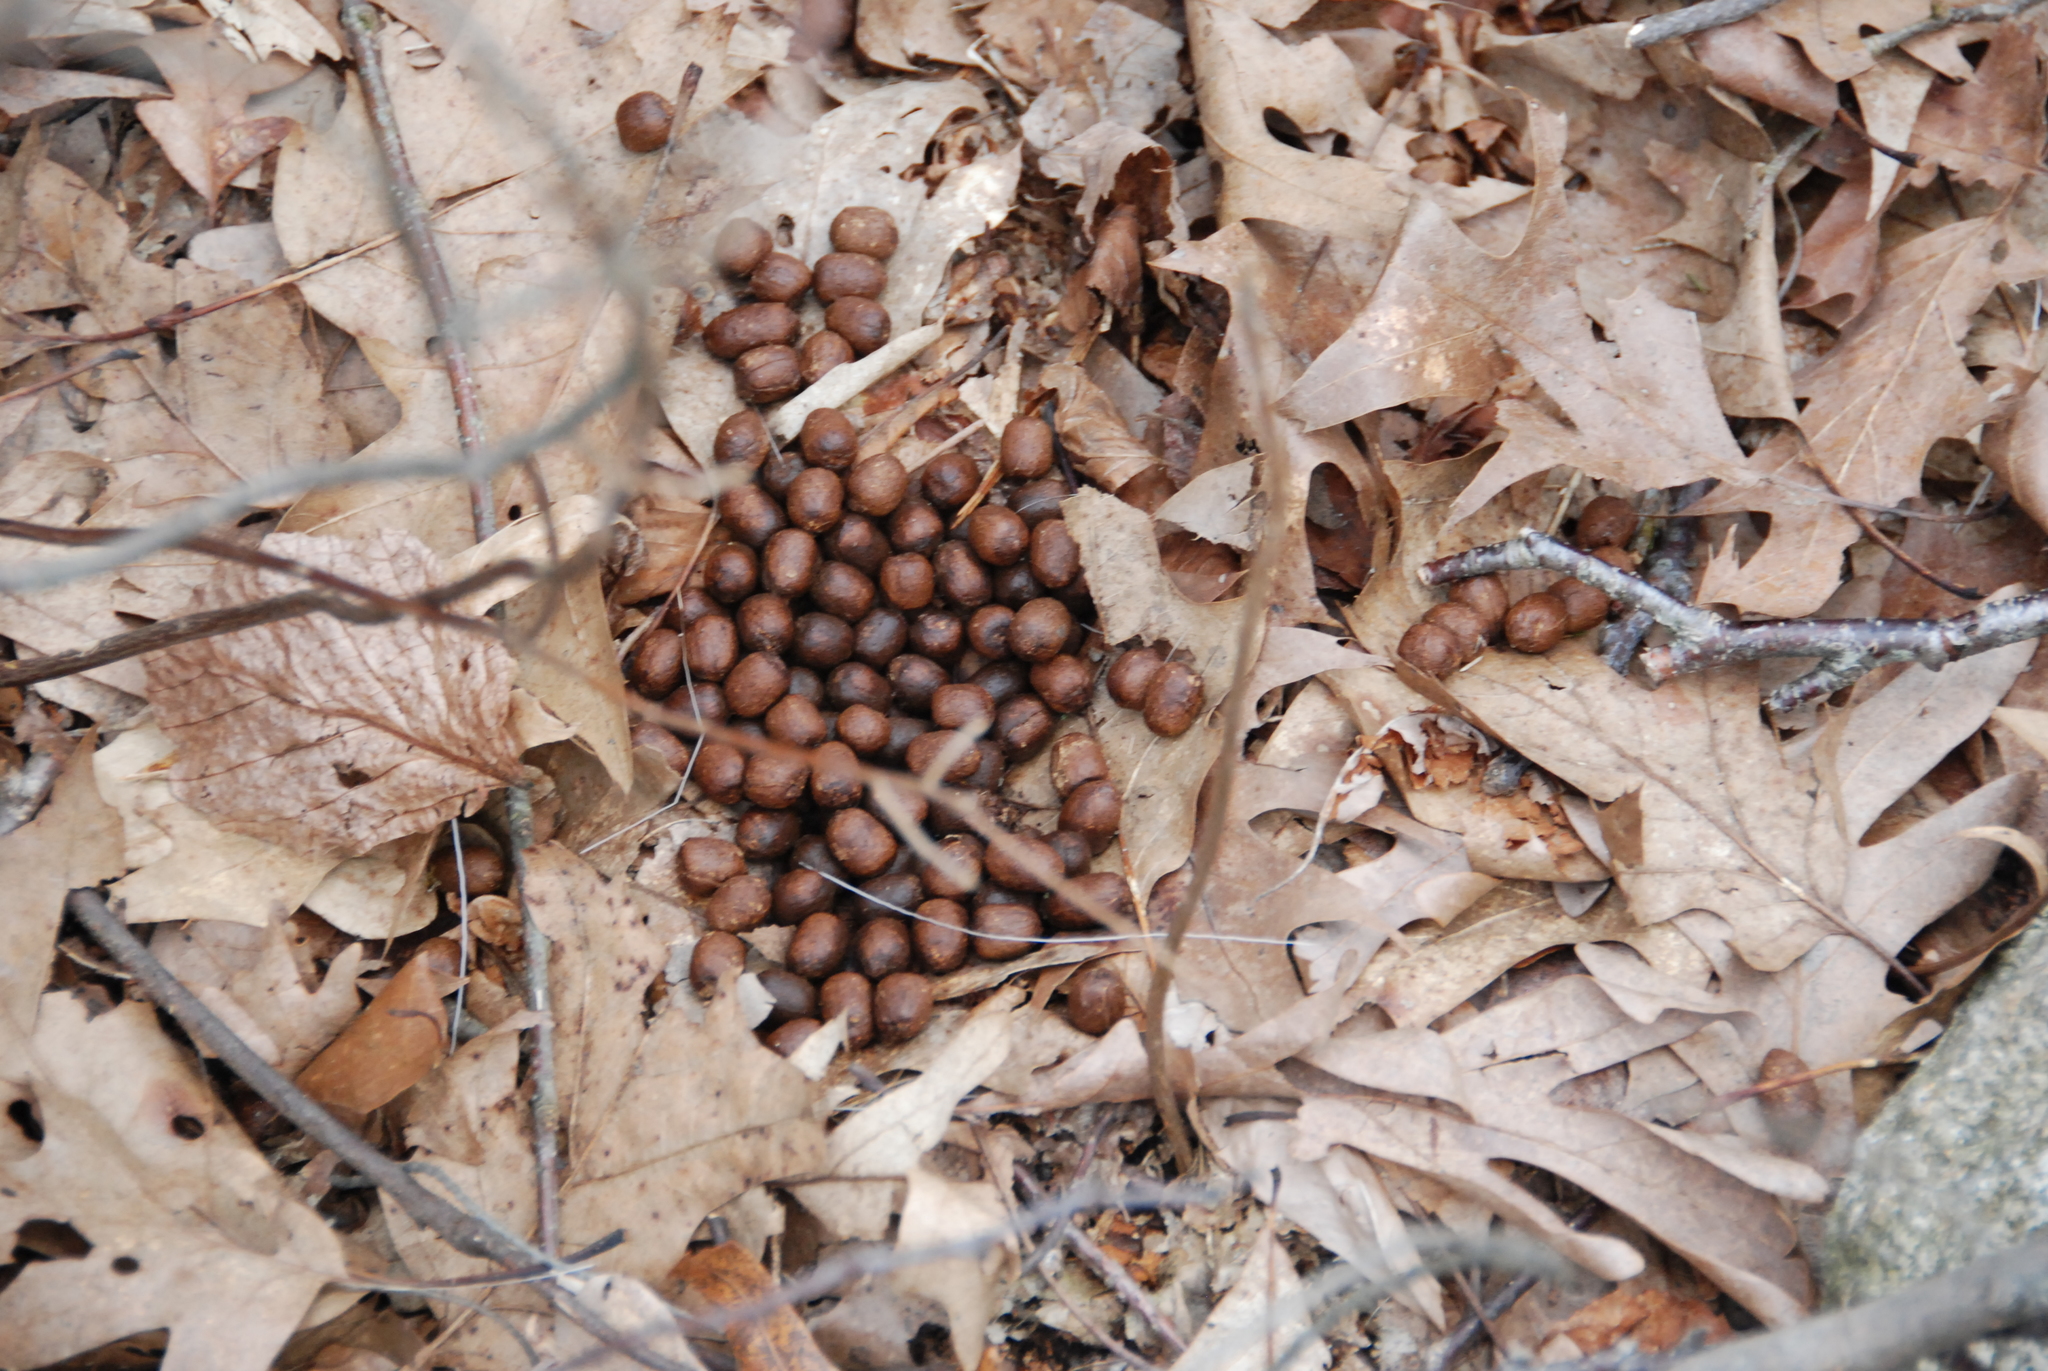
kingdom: Animalia
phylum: Chordata
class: Mammalia
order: Artiodactyla
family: Cervidae
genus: Odocoileus
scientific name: Odocoileus virginianus
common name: White-tailed deer
